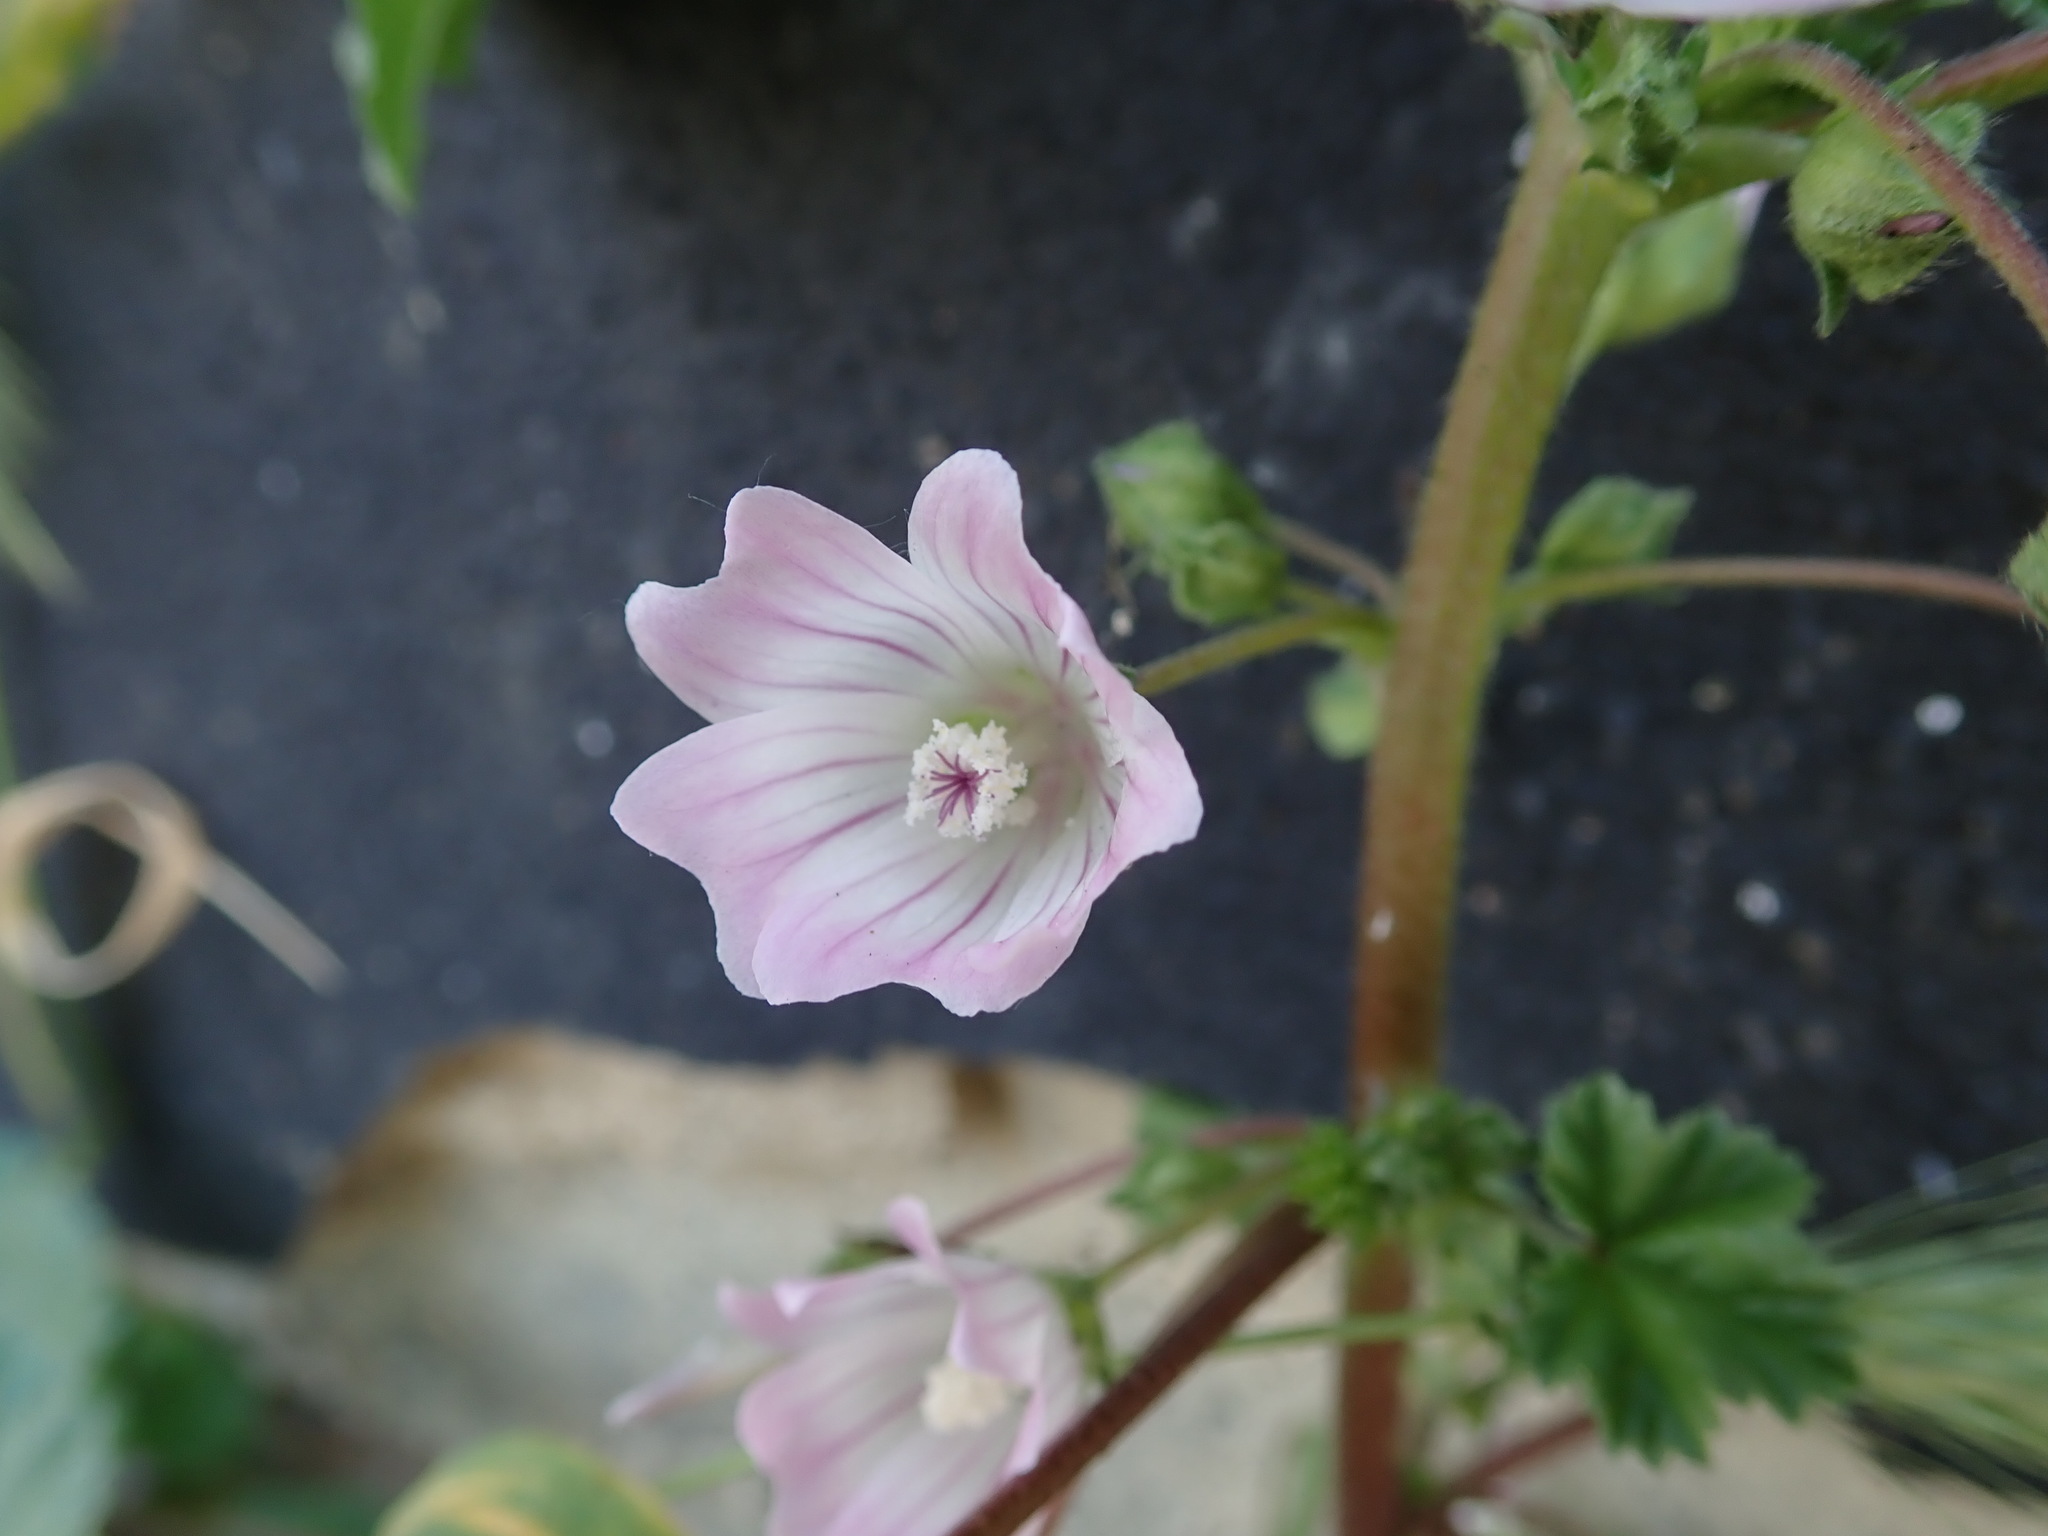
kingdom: Plantae
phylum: Tracheophyta
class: Magnoliopsida
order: Malvales
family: Malvaceae
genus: Malva
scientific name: Malva neglecta
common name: Common mallow
